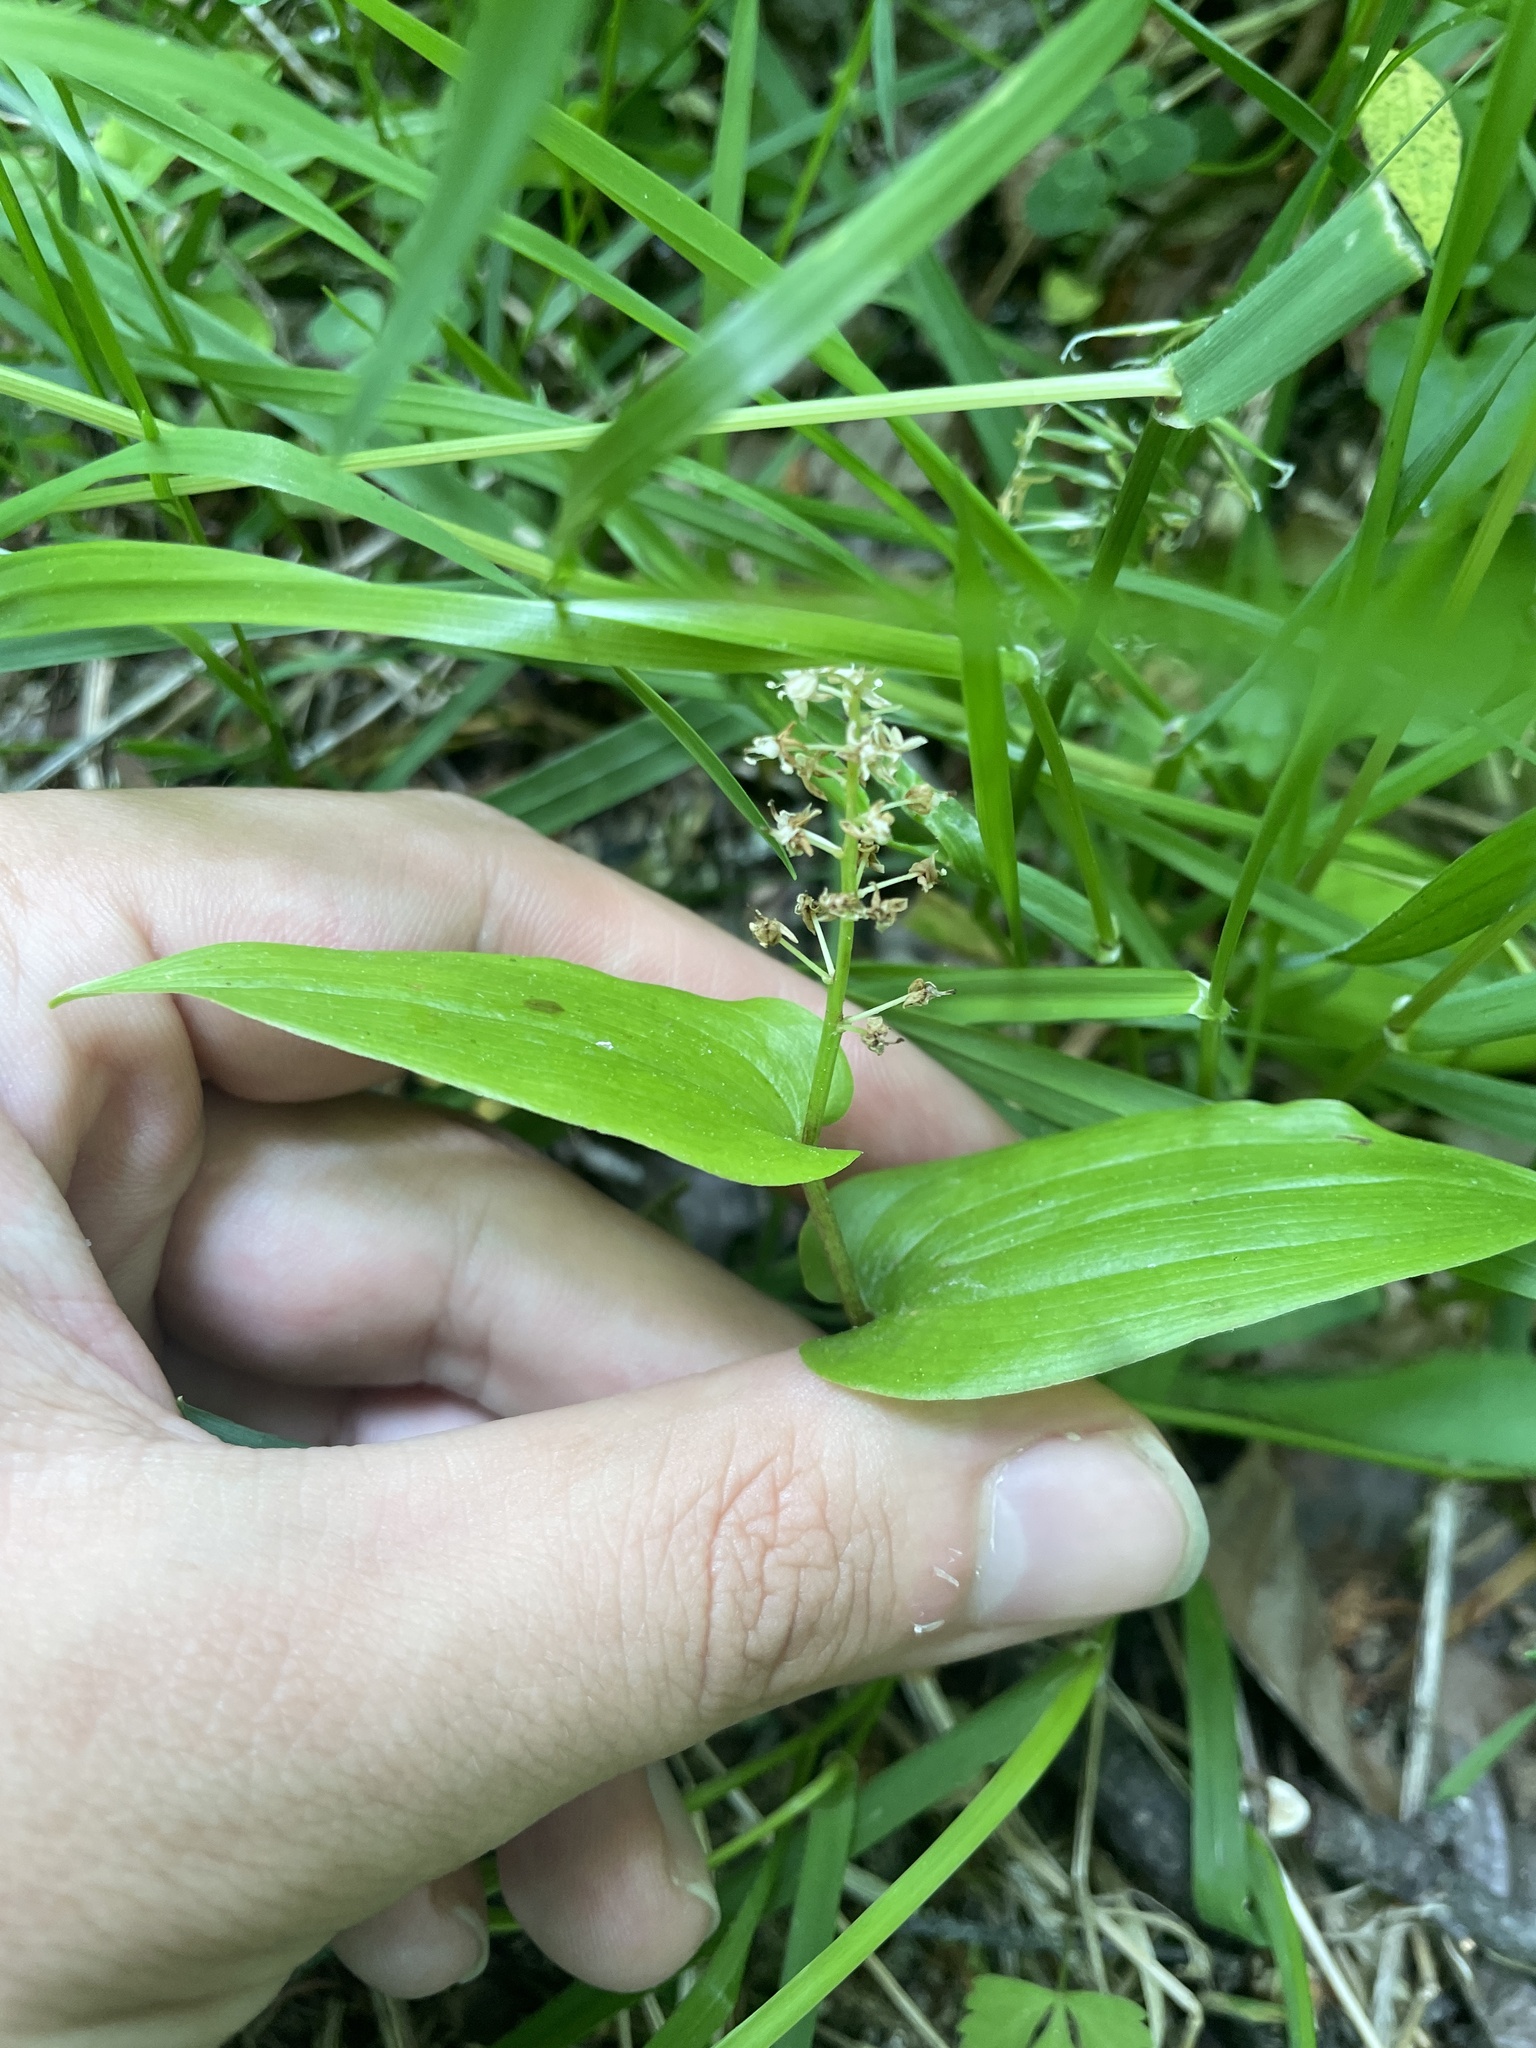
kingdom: Plantae
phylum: Tracheophyta
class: Liliopsida
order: Asparagales
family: Asparagaceae
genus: Maianthemum
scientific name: Maianthemum canadense
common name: False lily-of-the-valley
